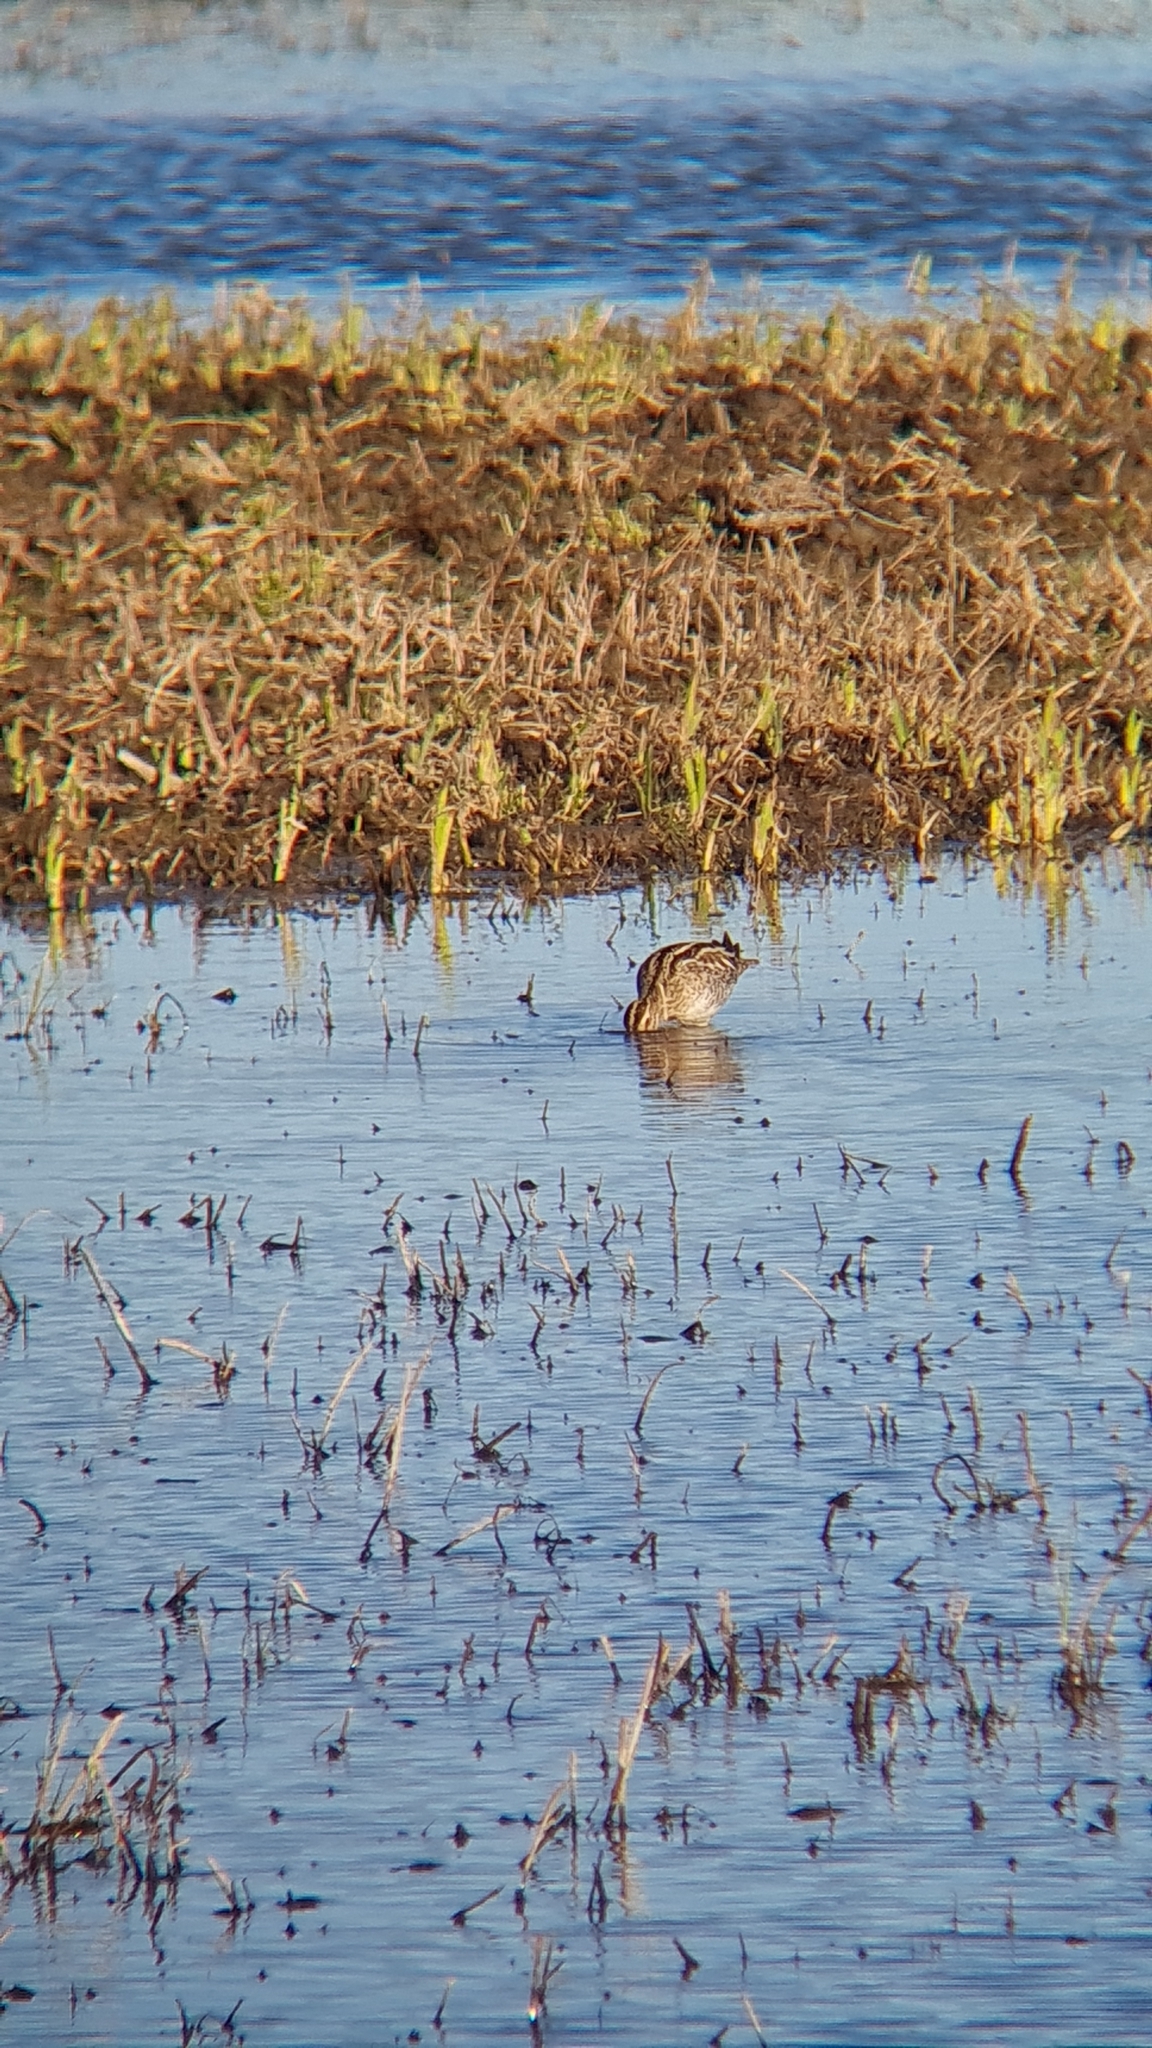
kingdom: Animalia
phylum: Chordata
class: Aves
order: Charadriiformes
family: Scolopacidae
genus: Gallinago
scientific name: Gallinago gallinago
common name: Common snipe
